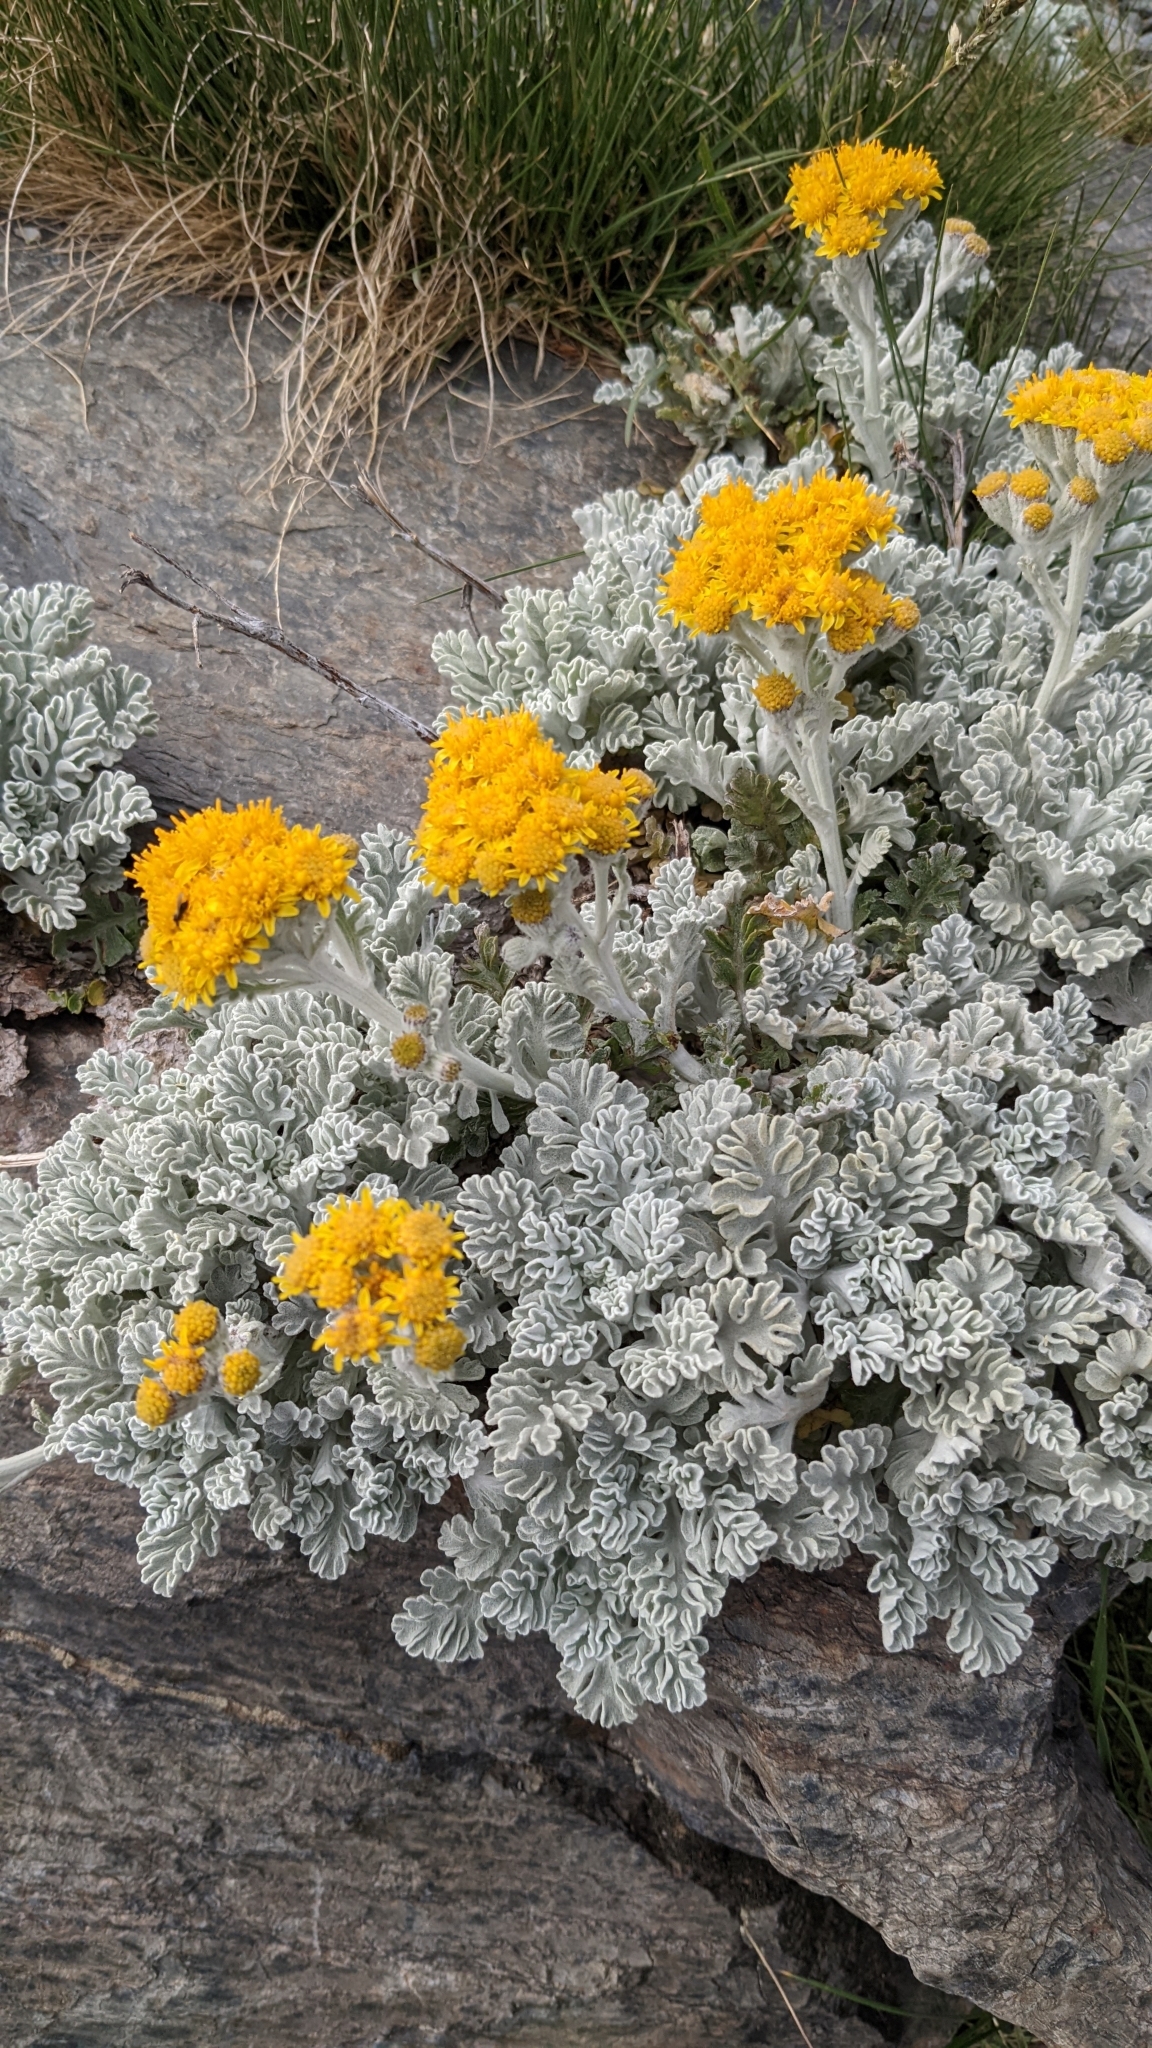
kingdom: Plantae
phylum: Tracheophyta
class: Magnoliopsida
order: Asterales
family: Asteraceae
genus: Jacobaea
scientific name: Jacobaea leucophylla
